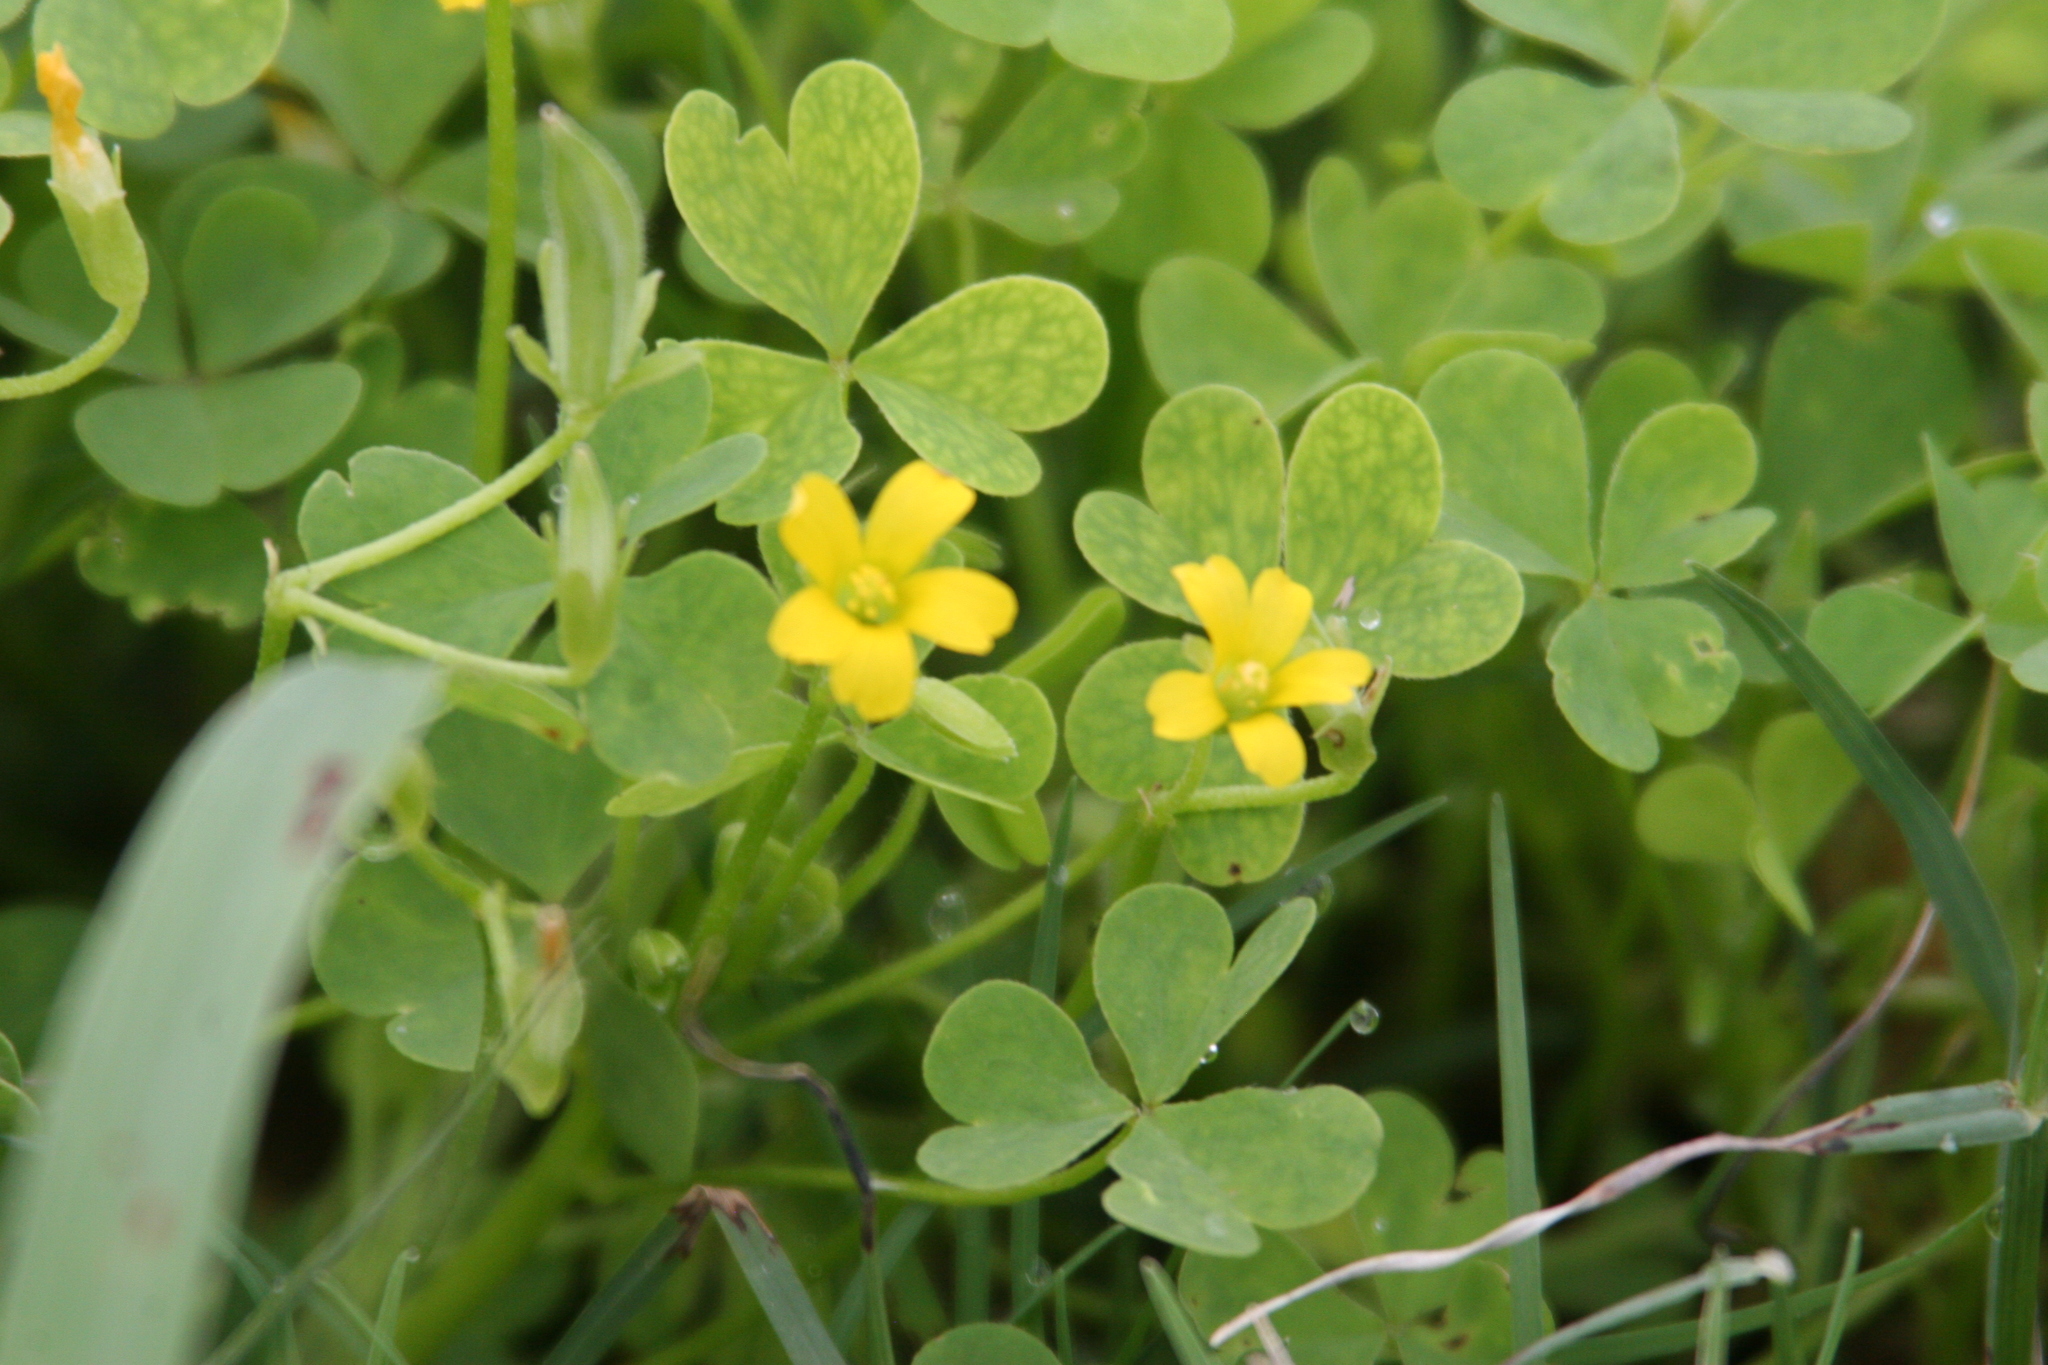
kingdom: Plantae
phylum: Tracheophyta
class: Magnoliopsida
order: Oxalidales
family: Oxalidaceae
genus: Oxalis
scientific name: Oxalis
